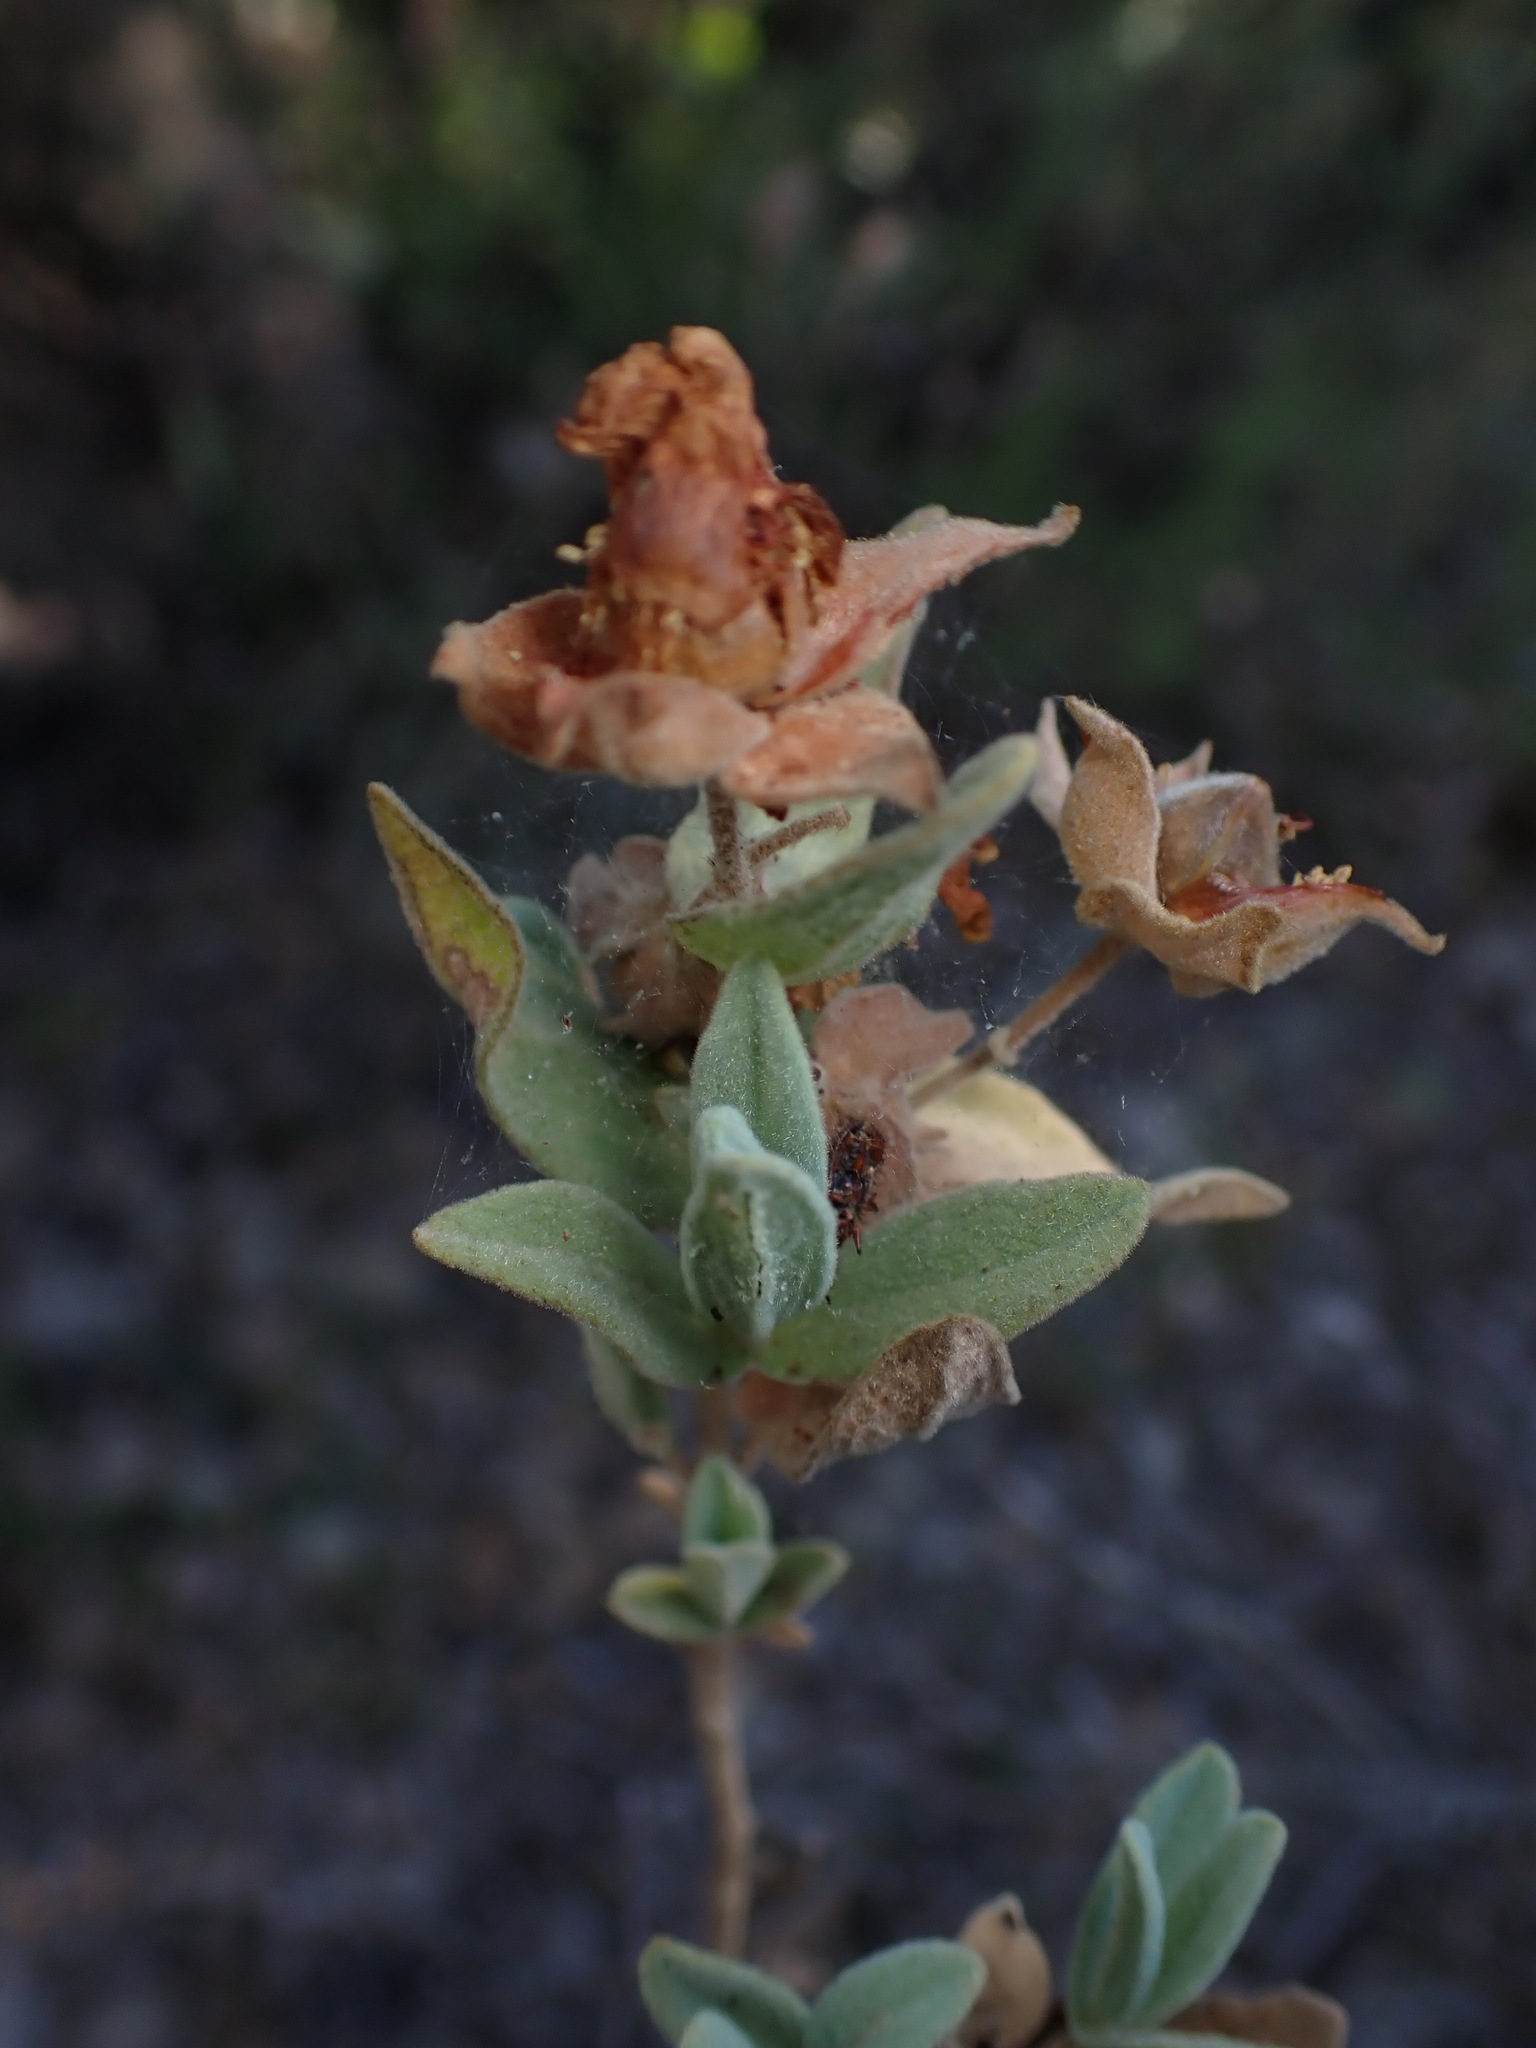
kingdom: Plantae
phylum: Tracheophyta
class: Magnoliopsida
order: Malvales
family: Cistaceae
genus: Cistus
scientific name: Cistus albidus
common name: White-leaf rock-rose
